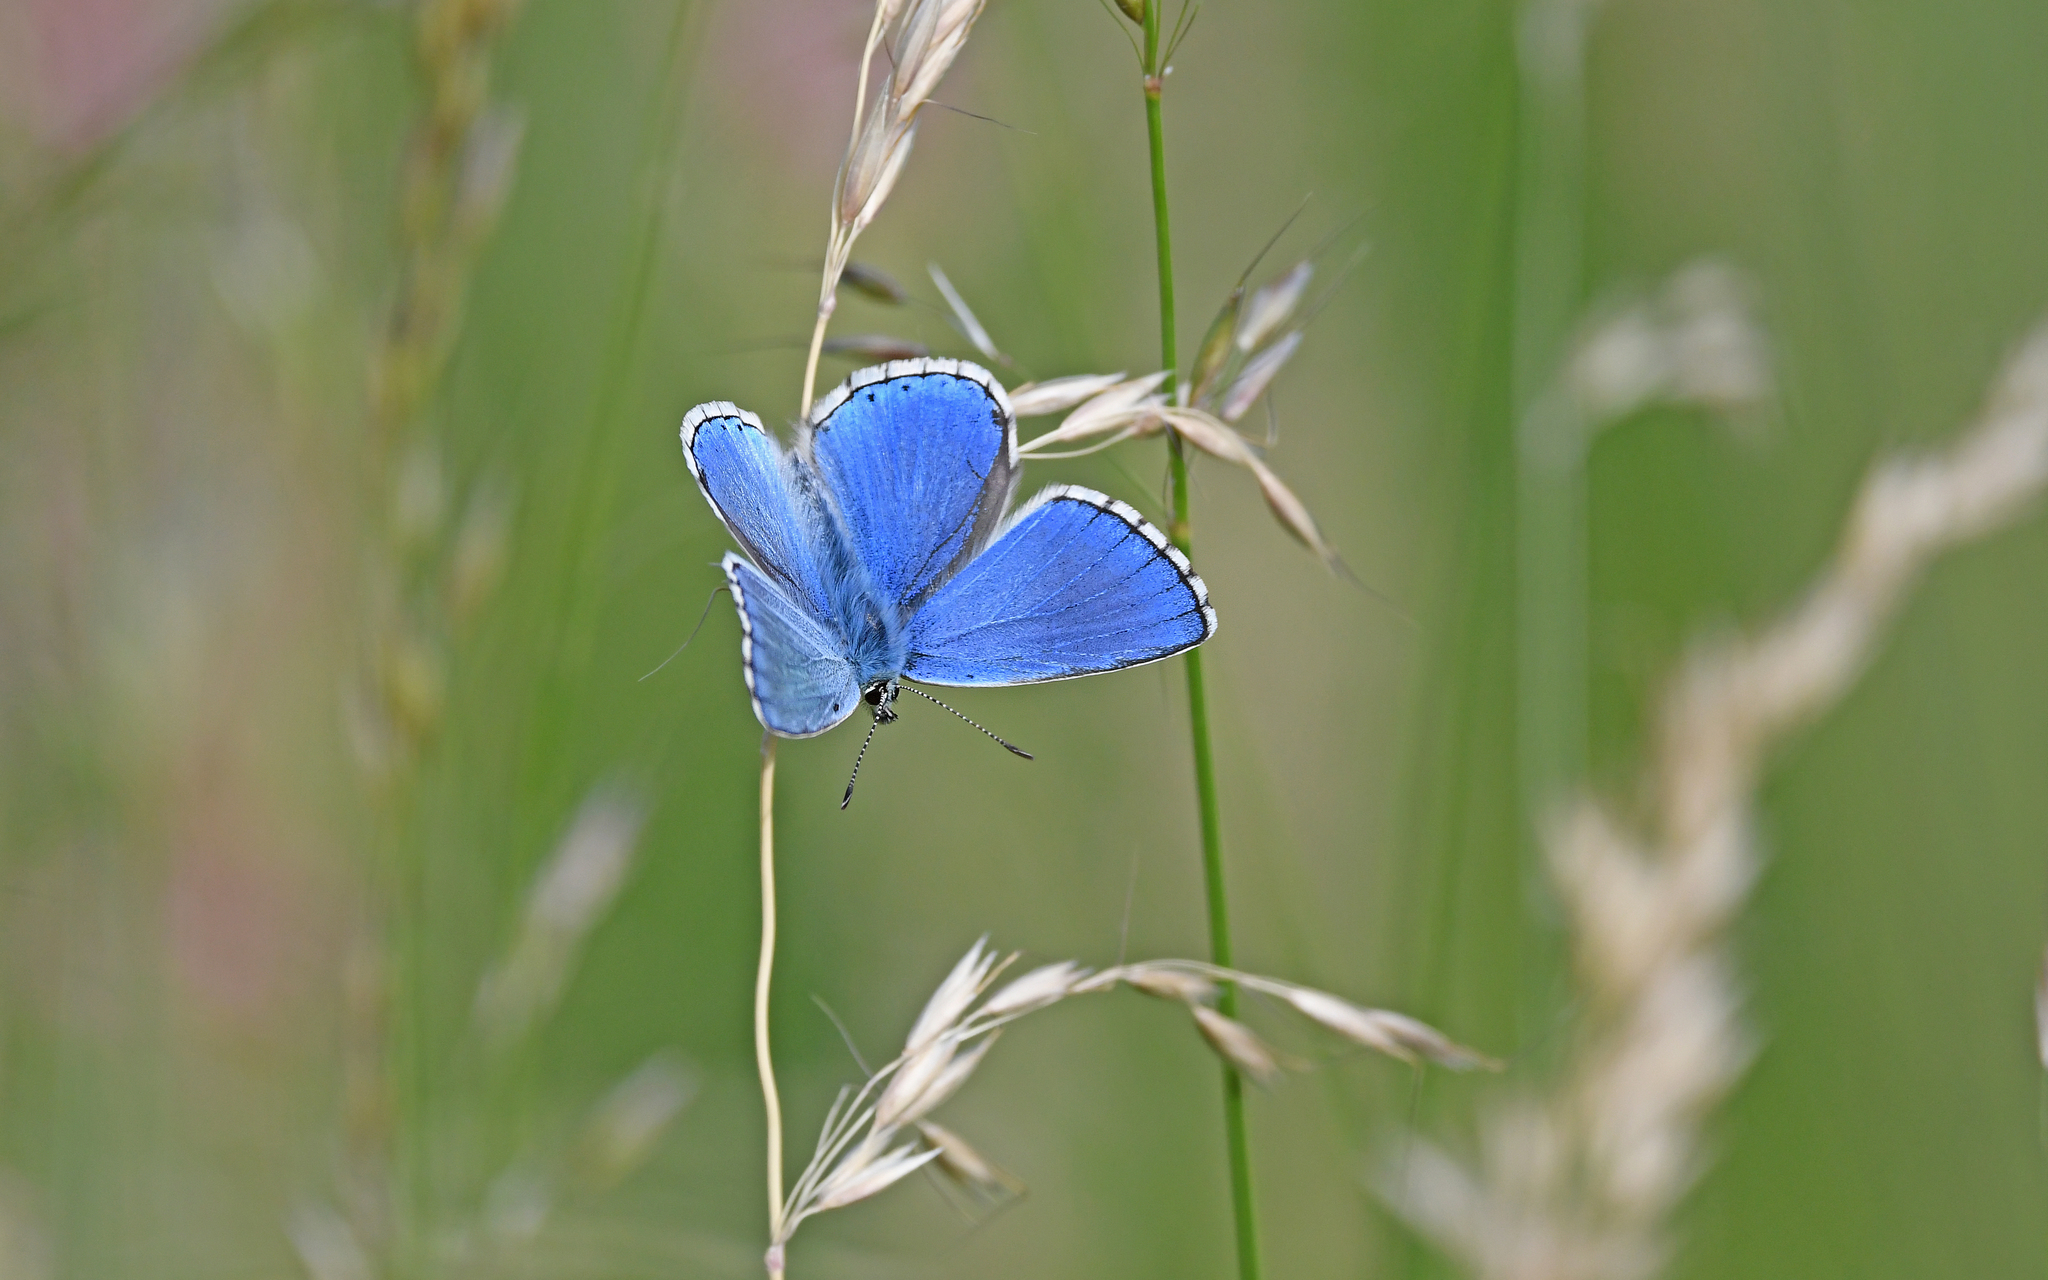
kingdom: Animalia
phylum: Arthropoda
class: Insecta
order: Lepidoptera
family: Lycaenidae
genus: Lysandra
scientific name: Lysandra bellargus
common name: Adonis blue
